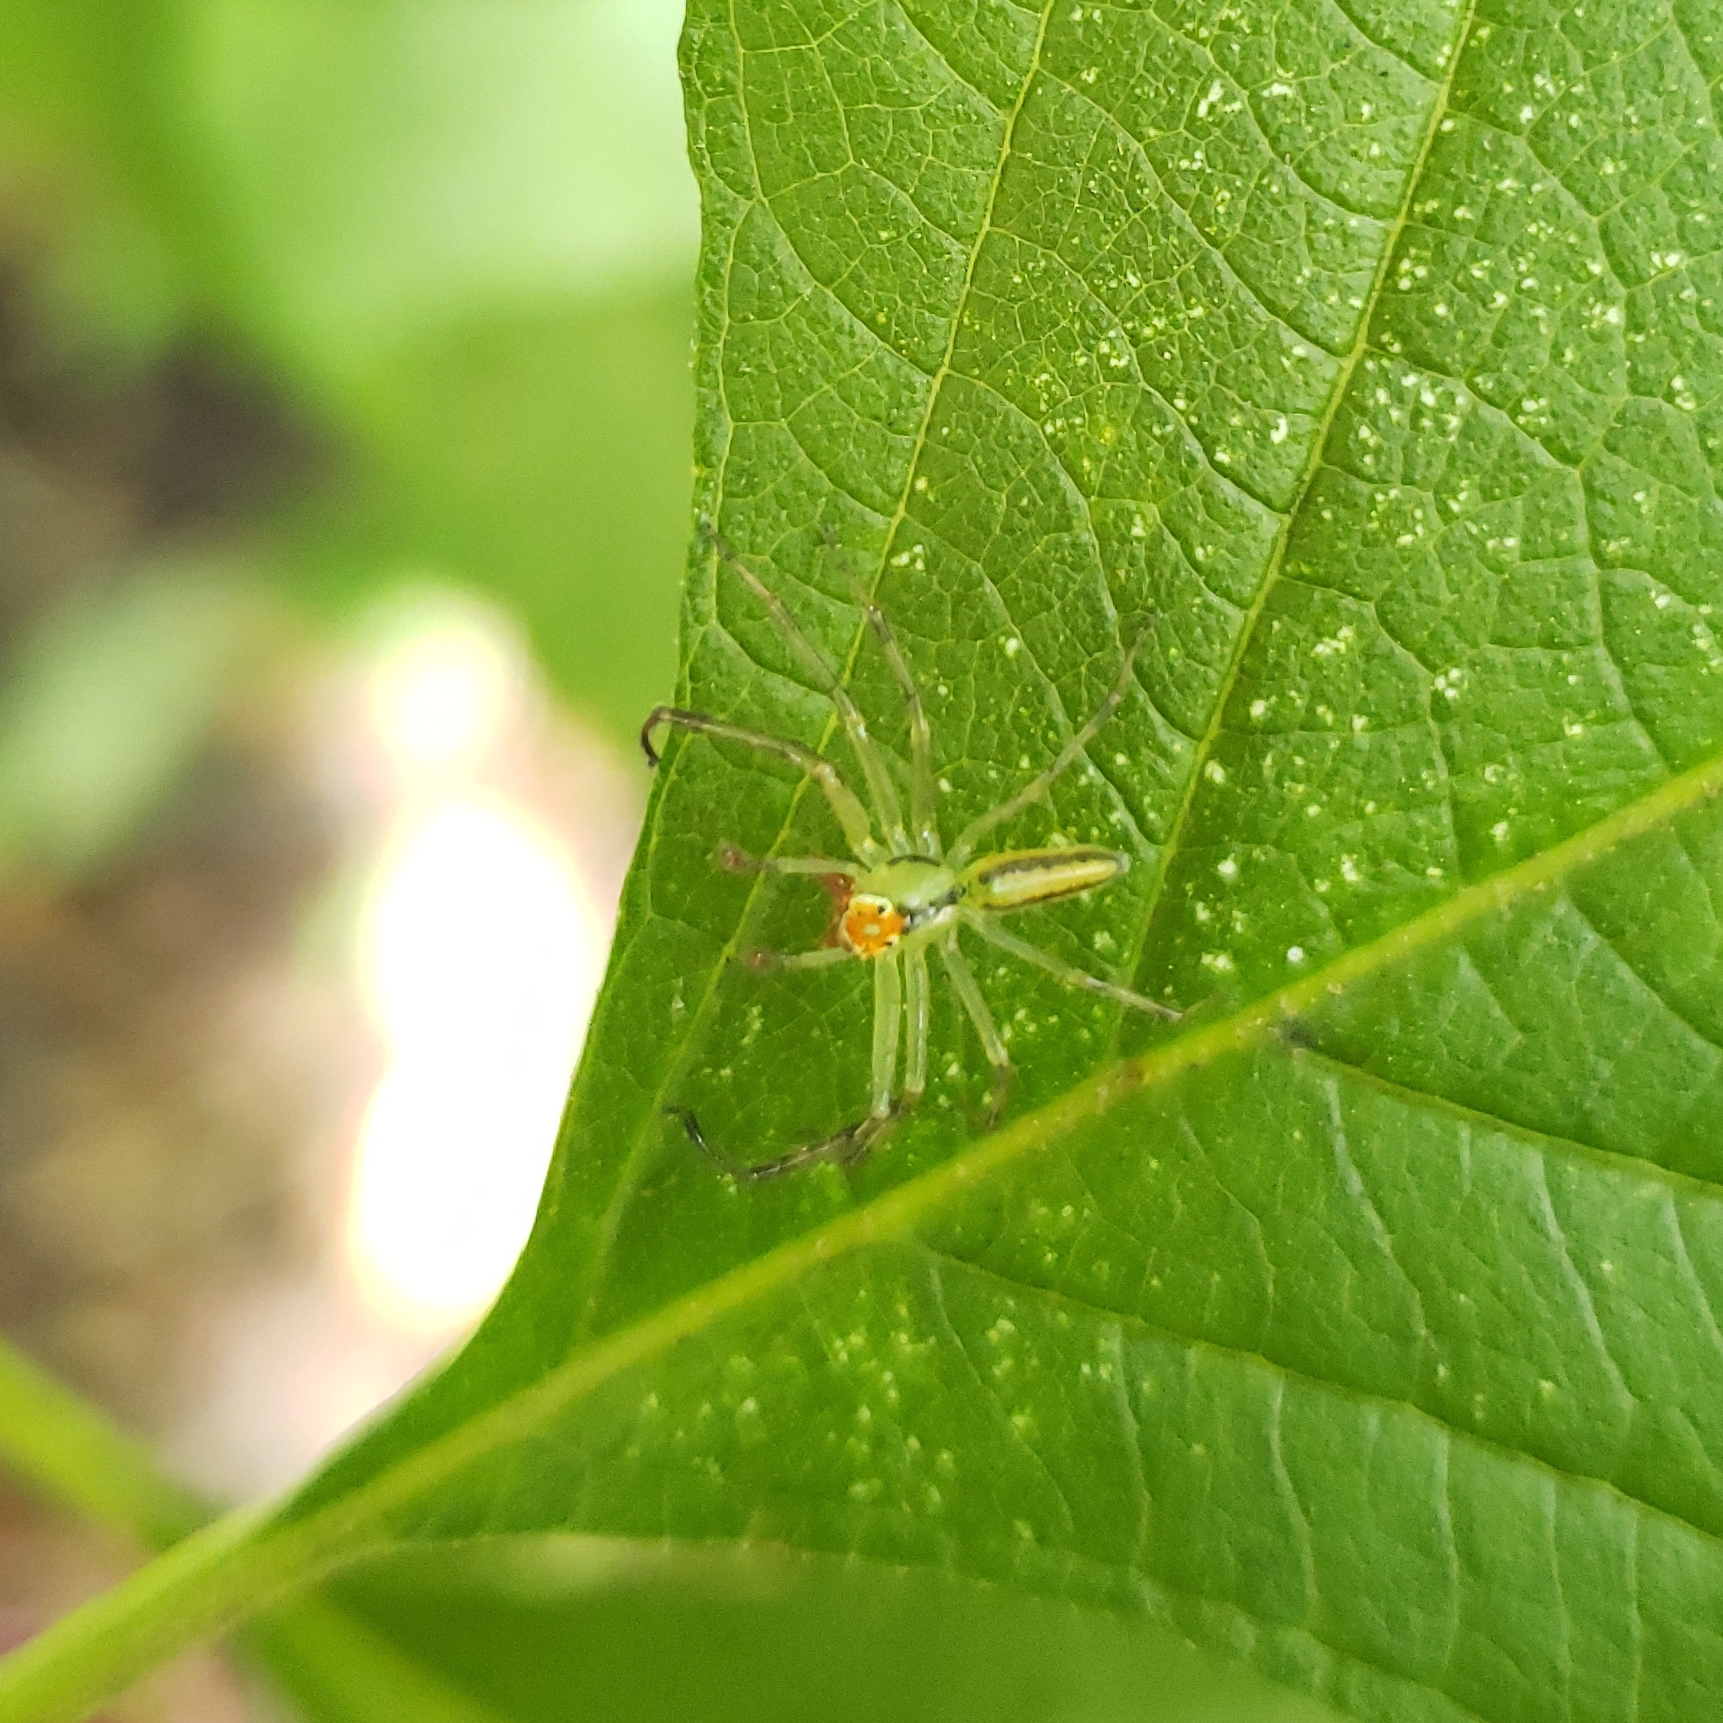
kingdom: Animalia
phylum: Arthropoda
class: Arachnida
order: Araneae
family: Salticidae
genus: Lyssomanes
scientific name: Lyssomanes viridis
